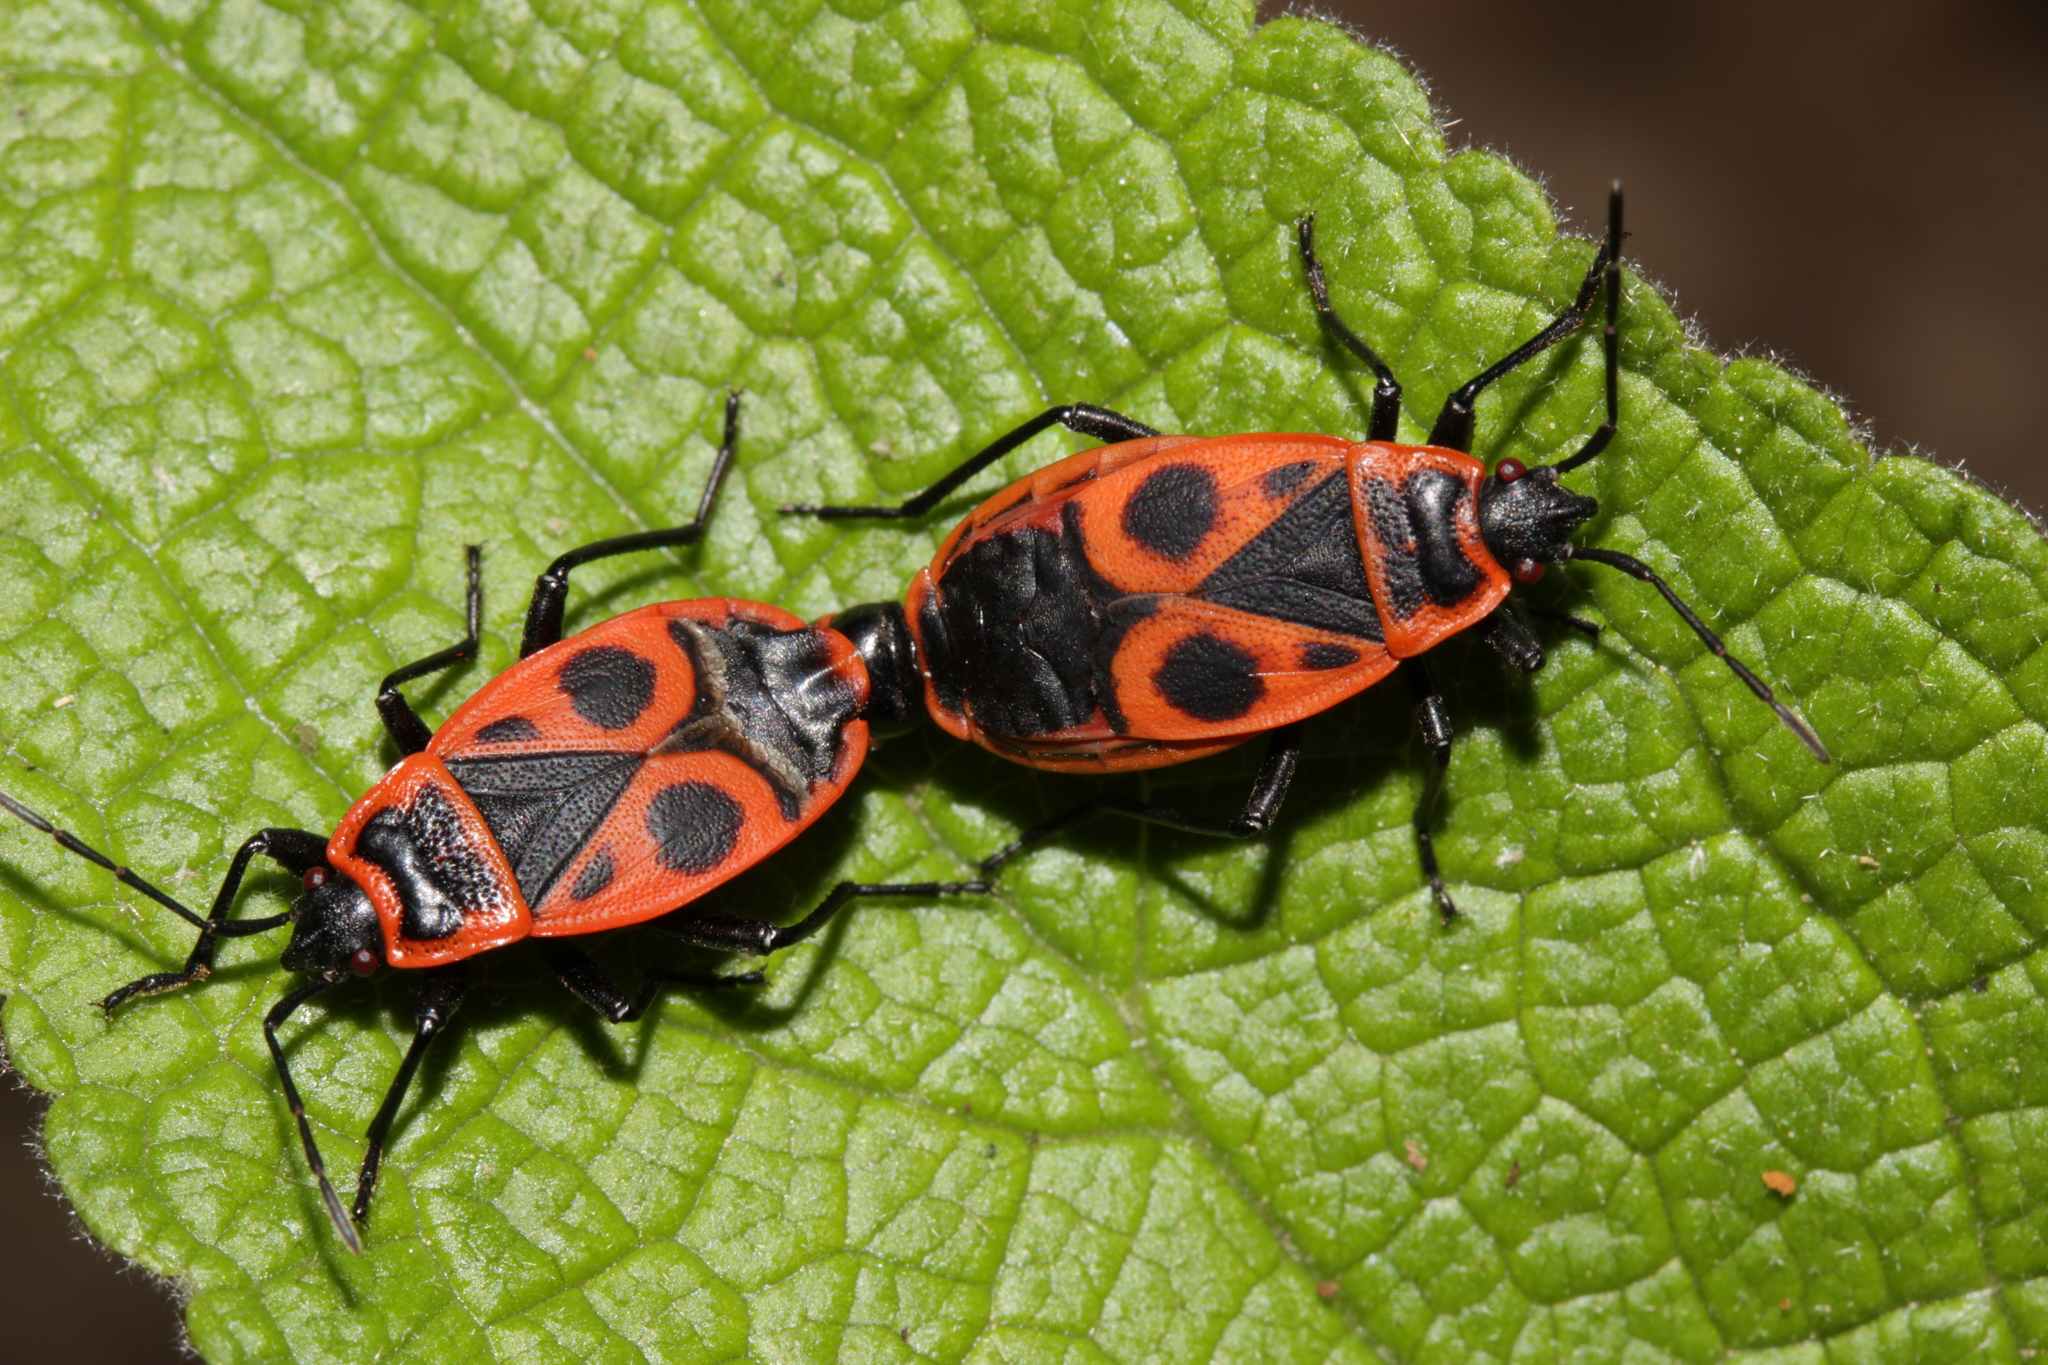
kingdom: Animalia
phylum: Arthropoda
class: Insecta
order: Hemiptera
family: Pyrrhocoridae
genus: Pyrrhocoris
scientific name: Pyrrhocoris apterus
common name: Firebug
